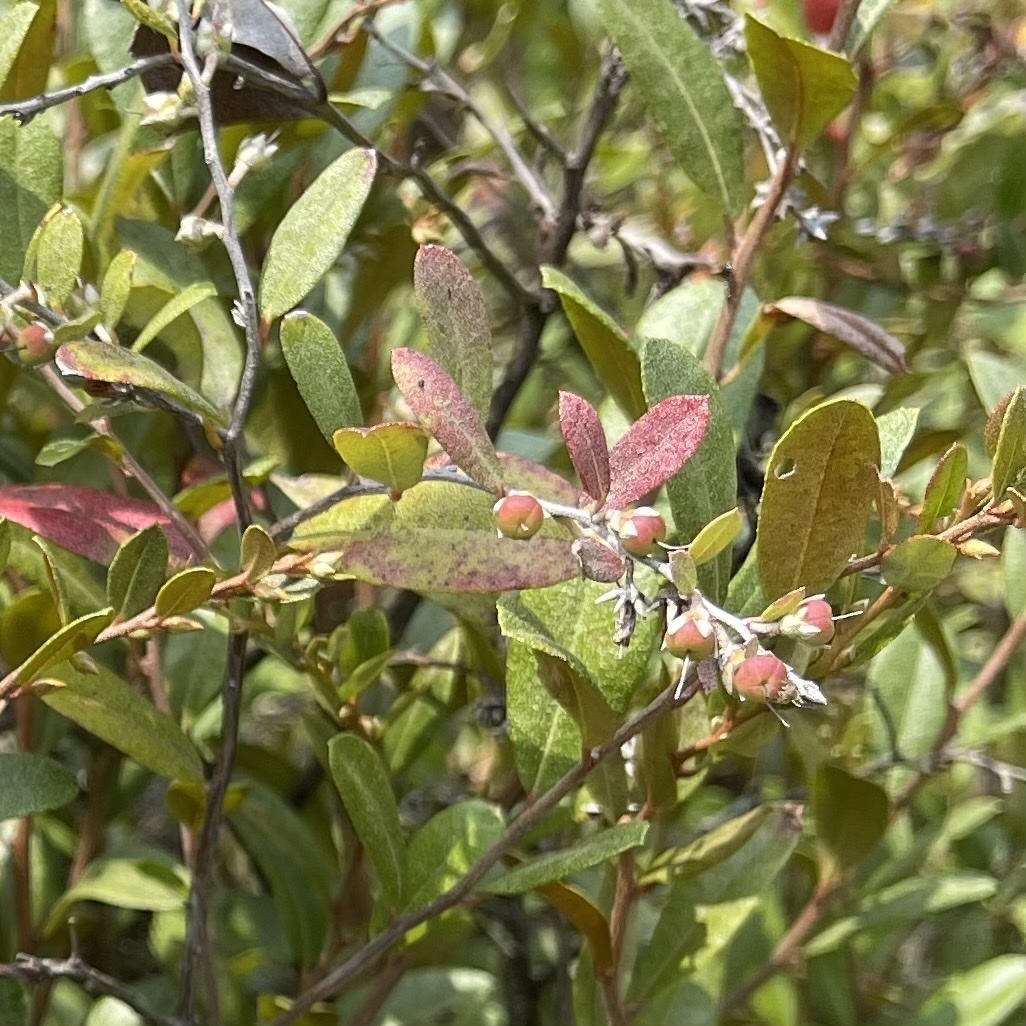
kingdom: Plantae
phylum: Tracheophyta
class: Magnoliopsida
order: Ericales
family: Ericaceae
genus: Chamaedaphne
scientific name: Chamaedaphne calyculata
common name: Leatherleaf
